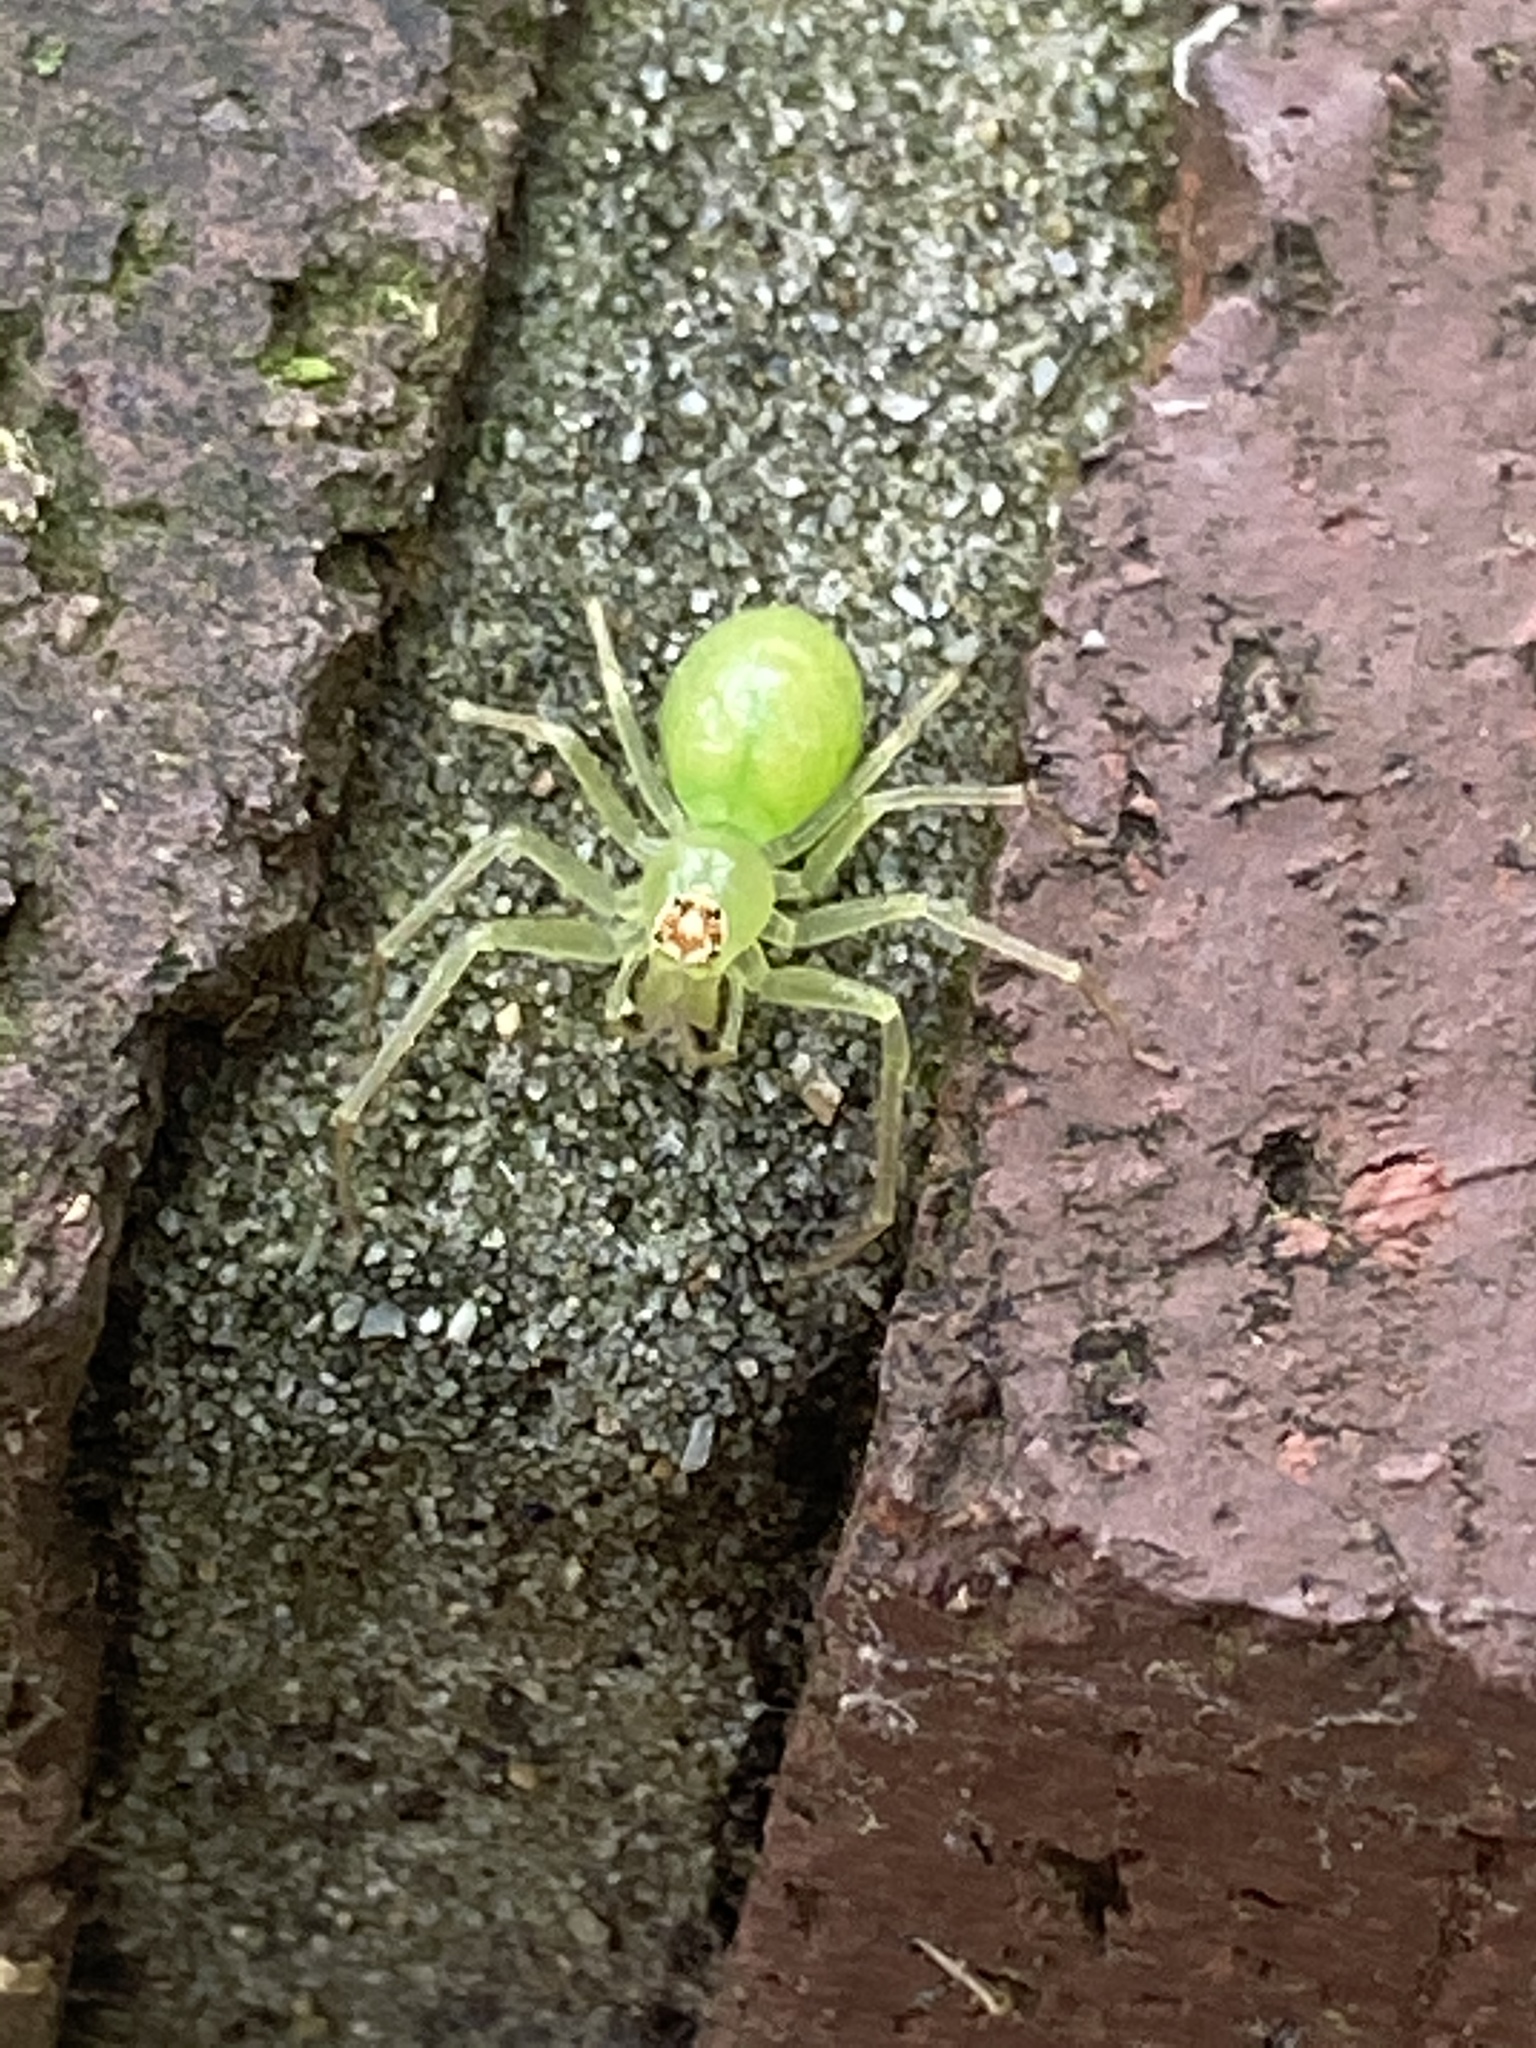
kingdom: Animalia
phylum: Arthropoda
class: Arachnida
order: Araneae
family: Salticidae
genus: Lyssomanes
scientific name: Lyssomanes viridis
